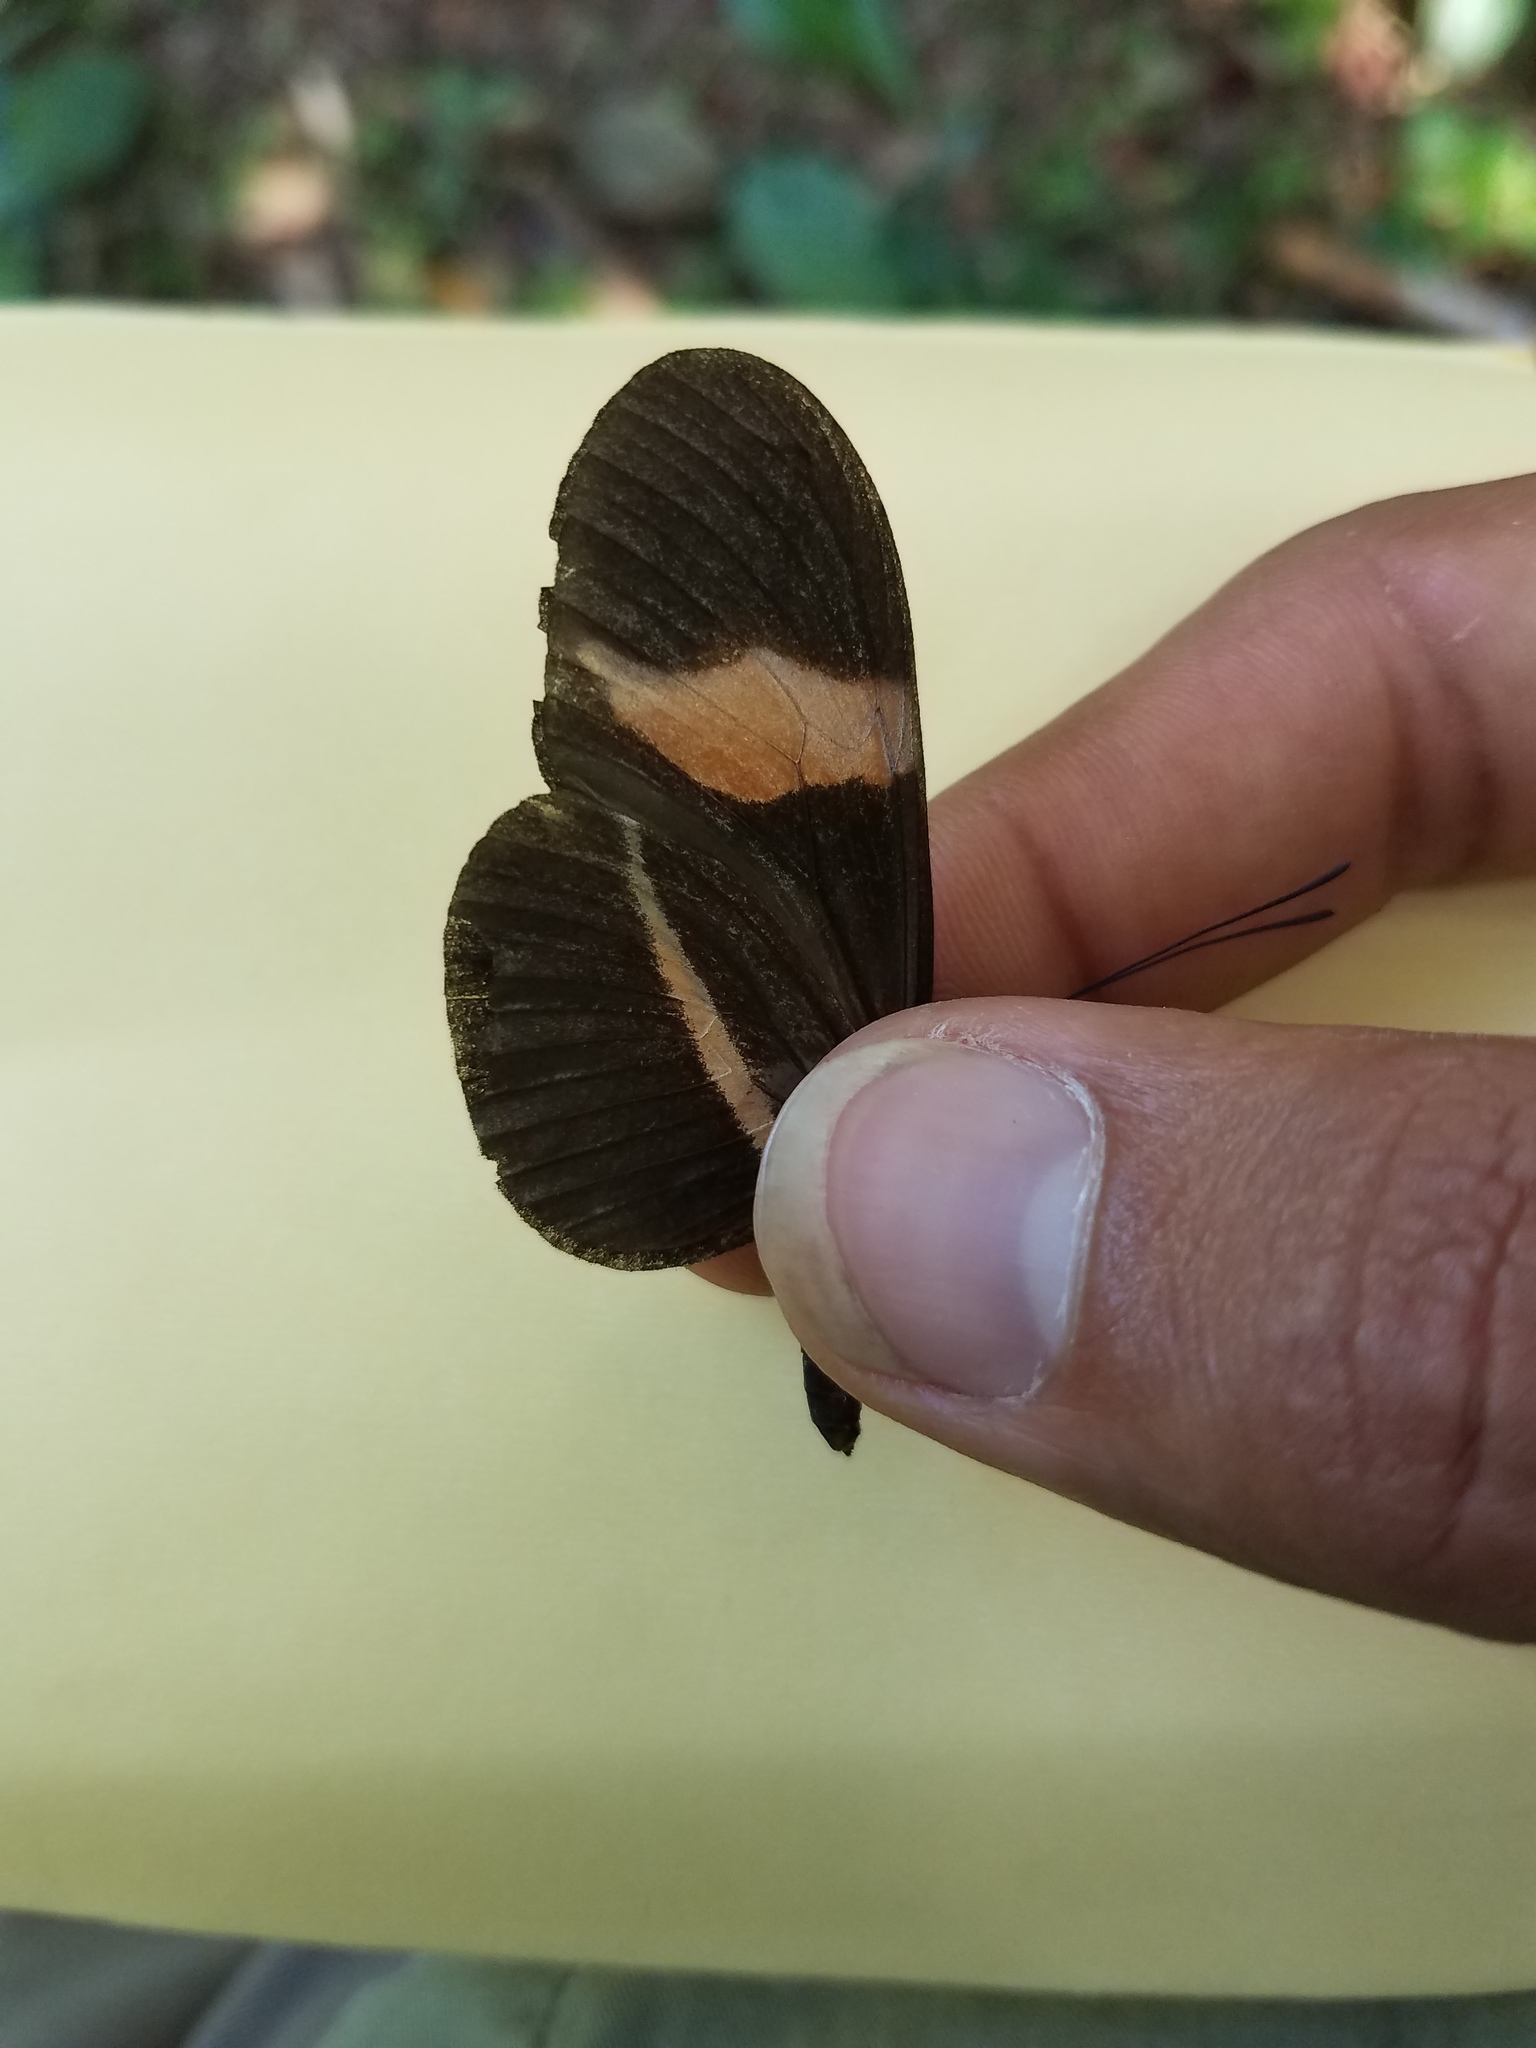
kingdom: Animalia
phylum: Arthropoda
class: Insecta
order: Lepidoptera
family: Nymphalidae
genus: Tirumala
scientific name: Tirumala petiverana
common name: Blue monarch
